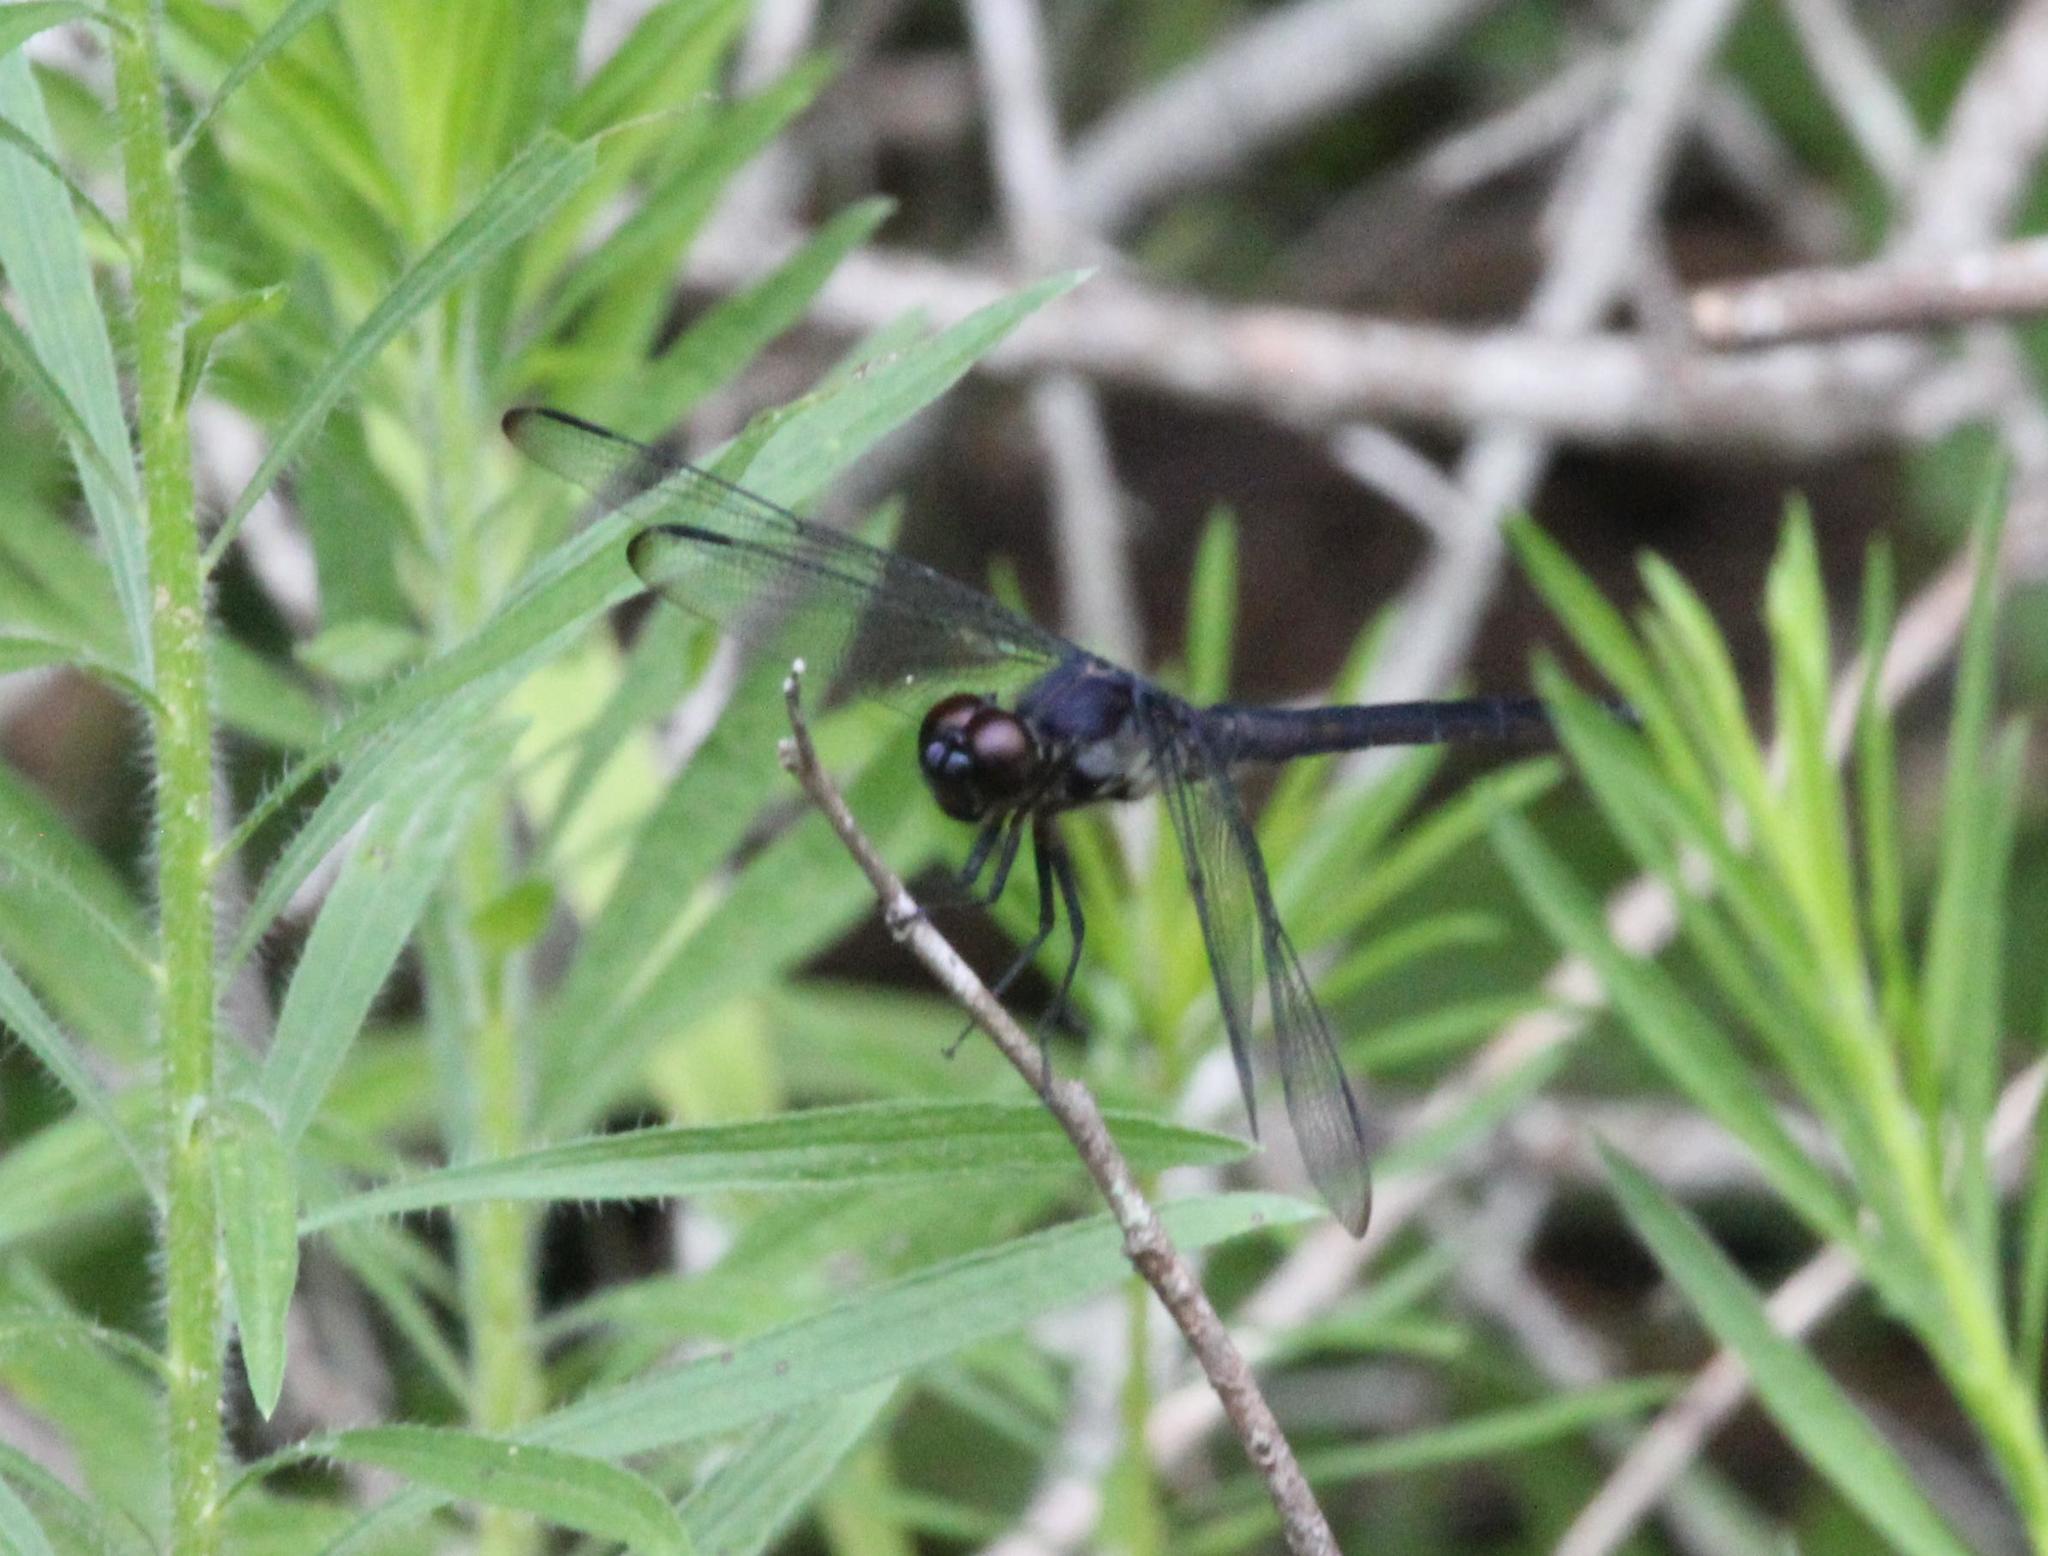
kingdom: Animalia
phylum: Arthropoda
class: Insecta
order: Odonata
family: Libellulidae
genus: Libellula
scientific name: Libellula incesta
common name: Slaty skimmer
